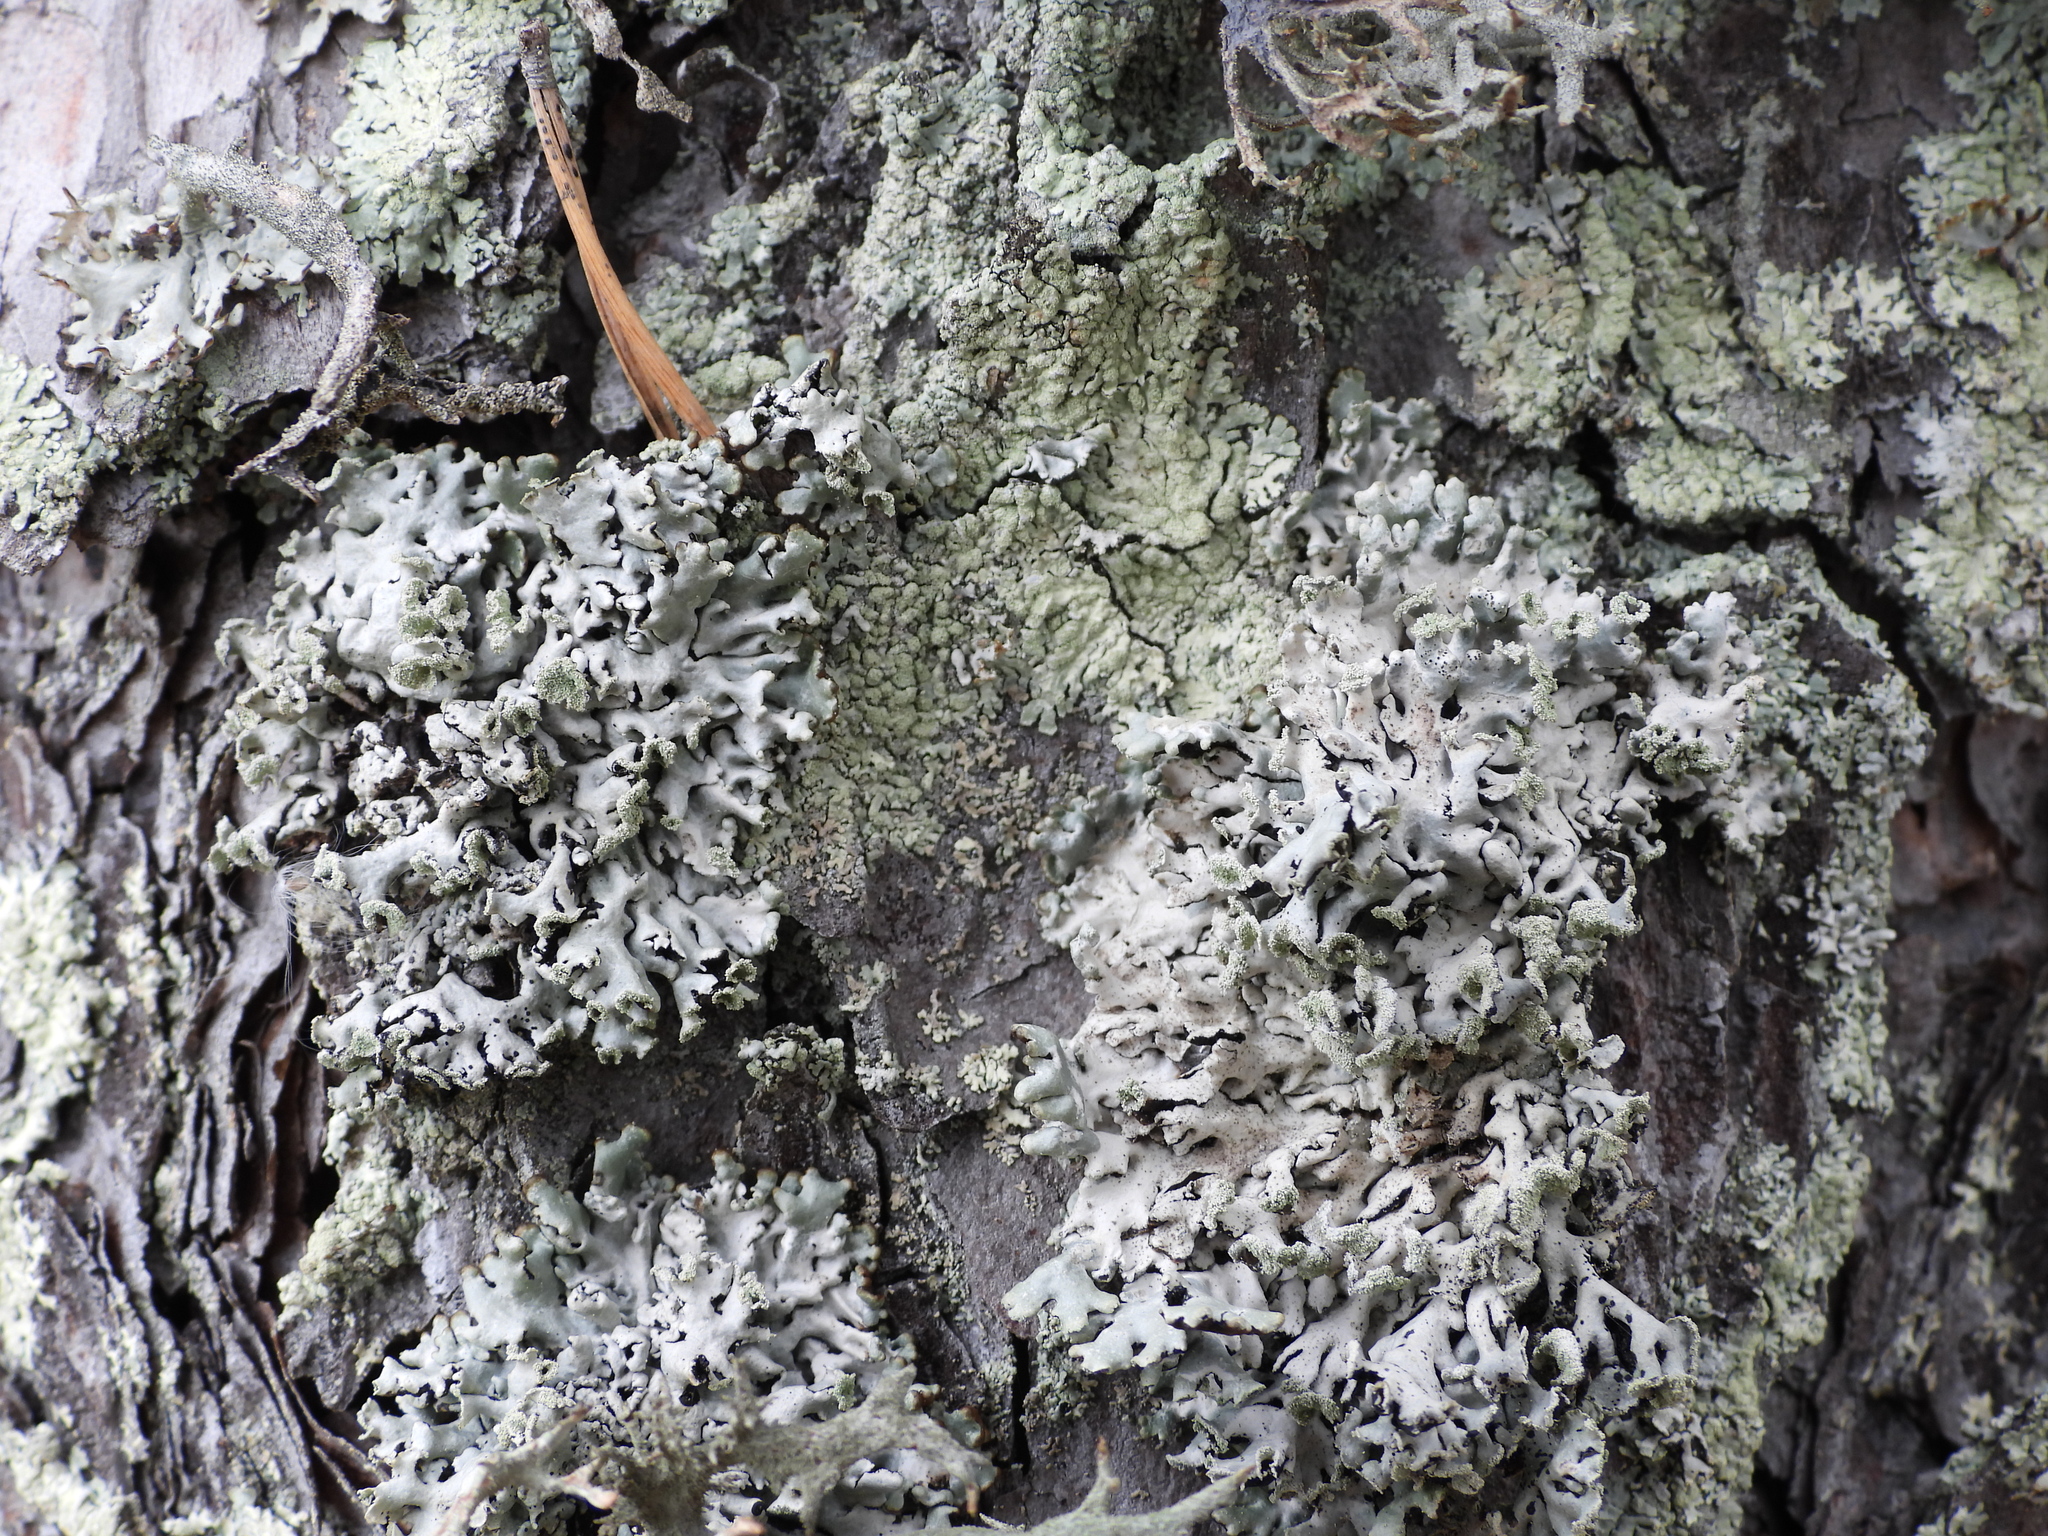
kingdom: Fungi
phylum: Ascomycota
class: Lecanoromycetes
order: Lecanorales
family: Parmeliaceae
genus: Hypogymnia
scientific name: Hypogymnia physodes
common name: Dark crottle
